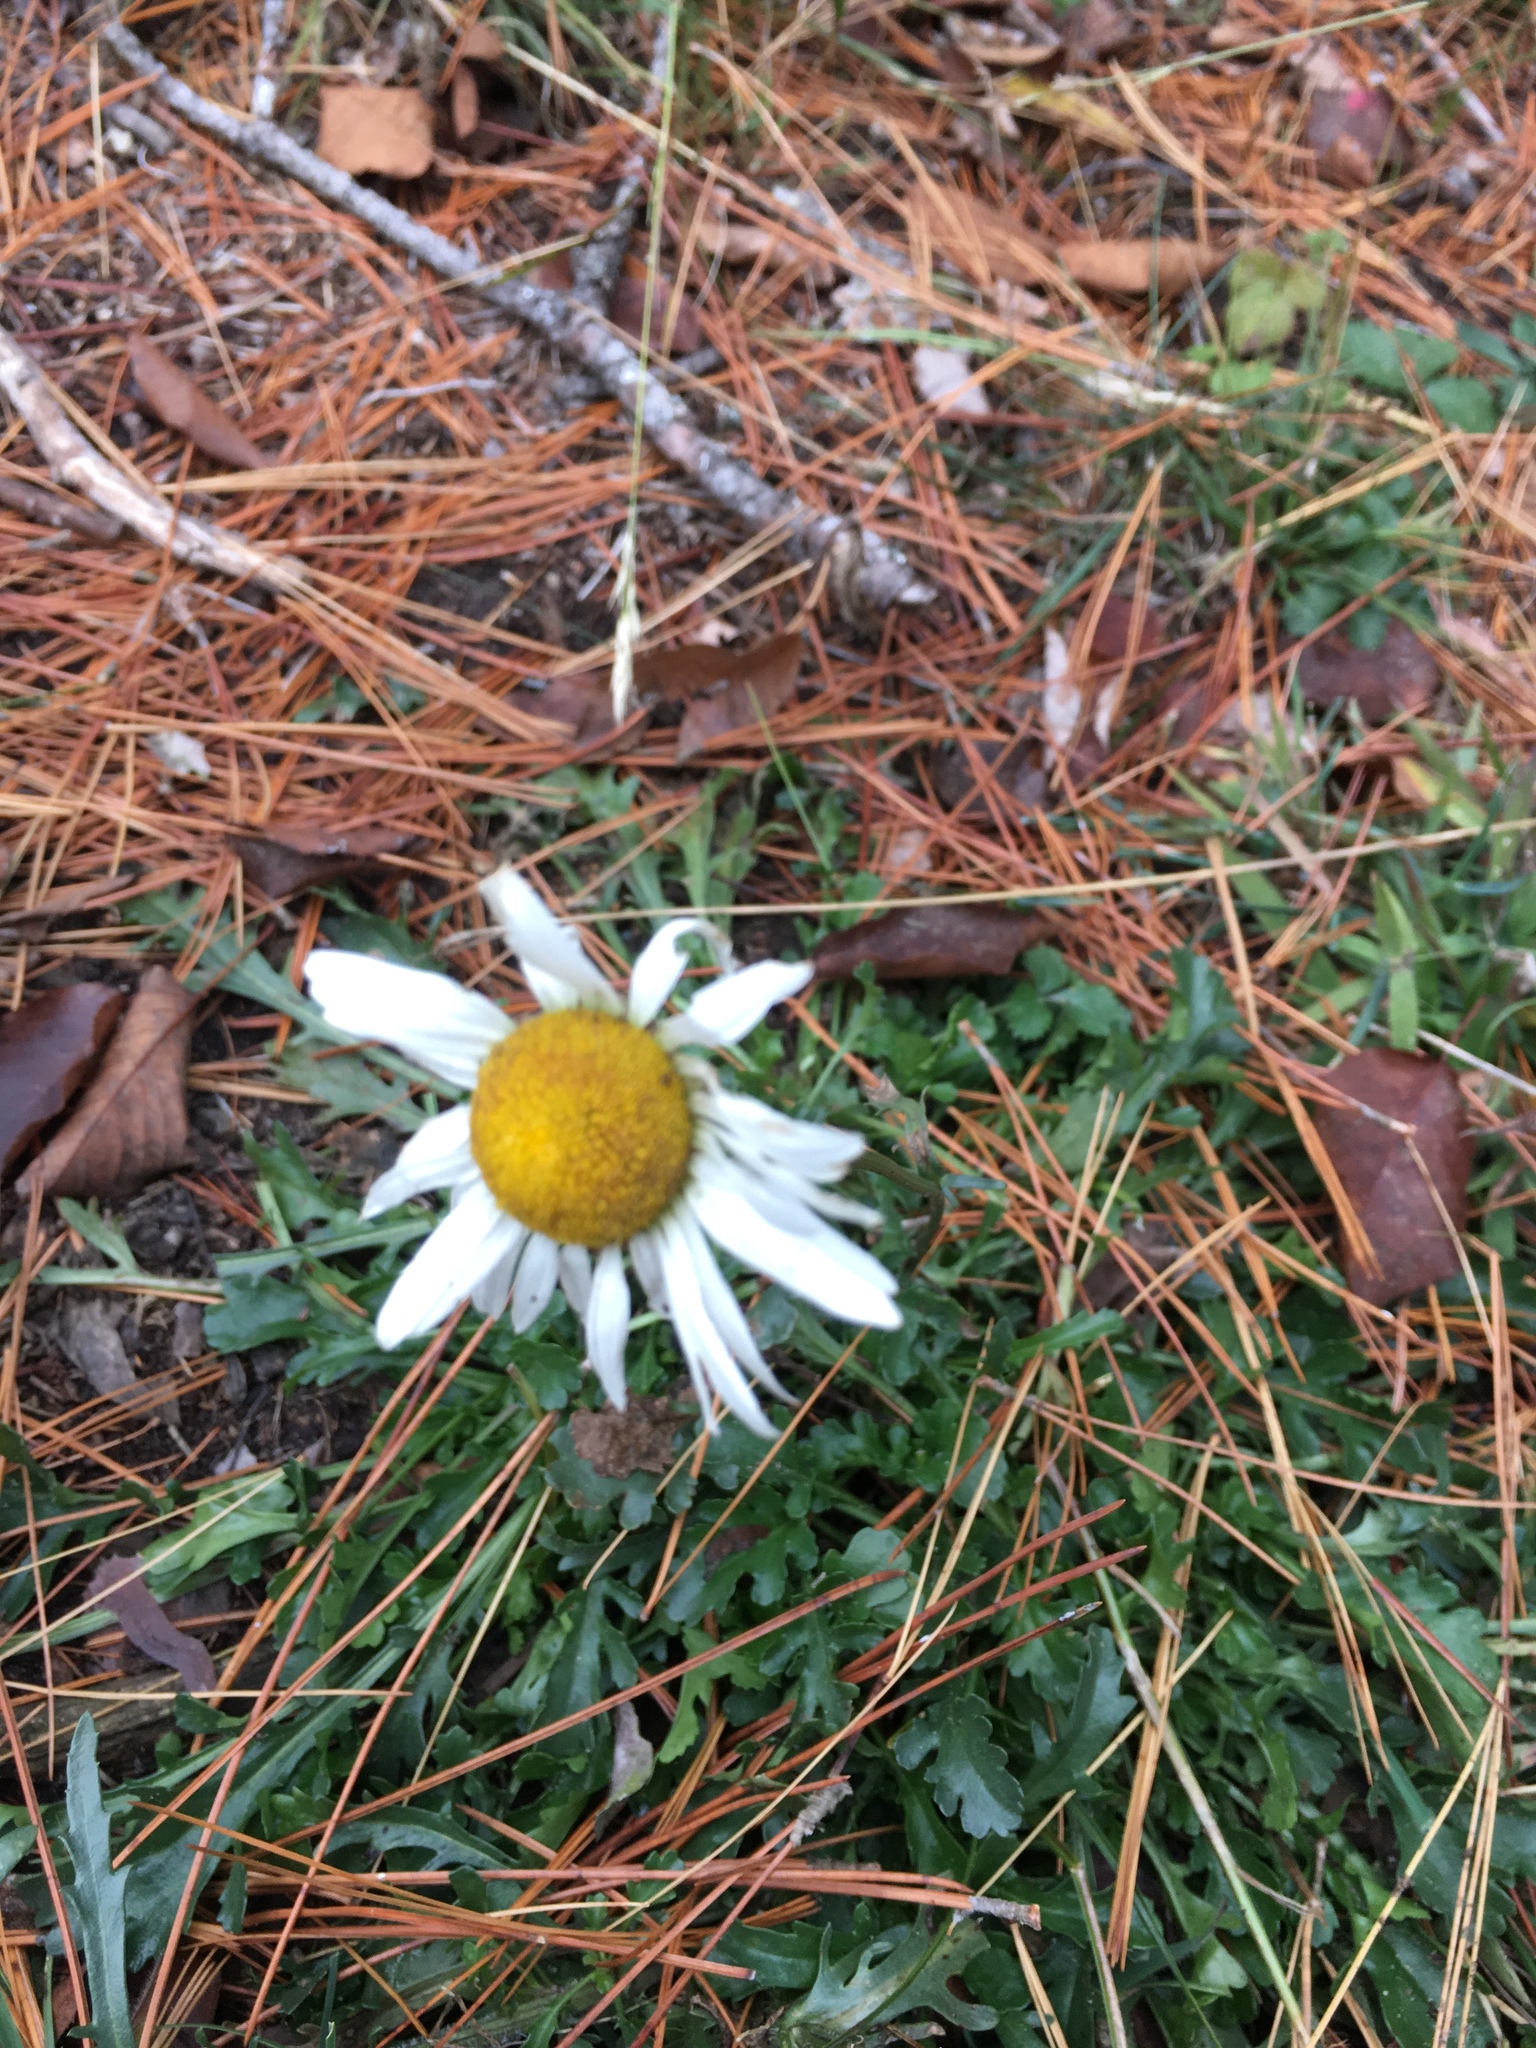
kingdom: Plantae
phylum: Tracheophyta
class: Magnoliopsida
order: Asterales
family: Asteraceae
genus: Leucanthemum
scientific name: Leucanthemum vulgare
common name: Oxeye daisy
